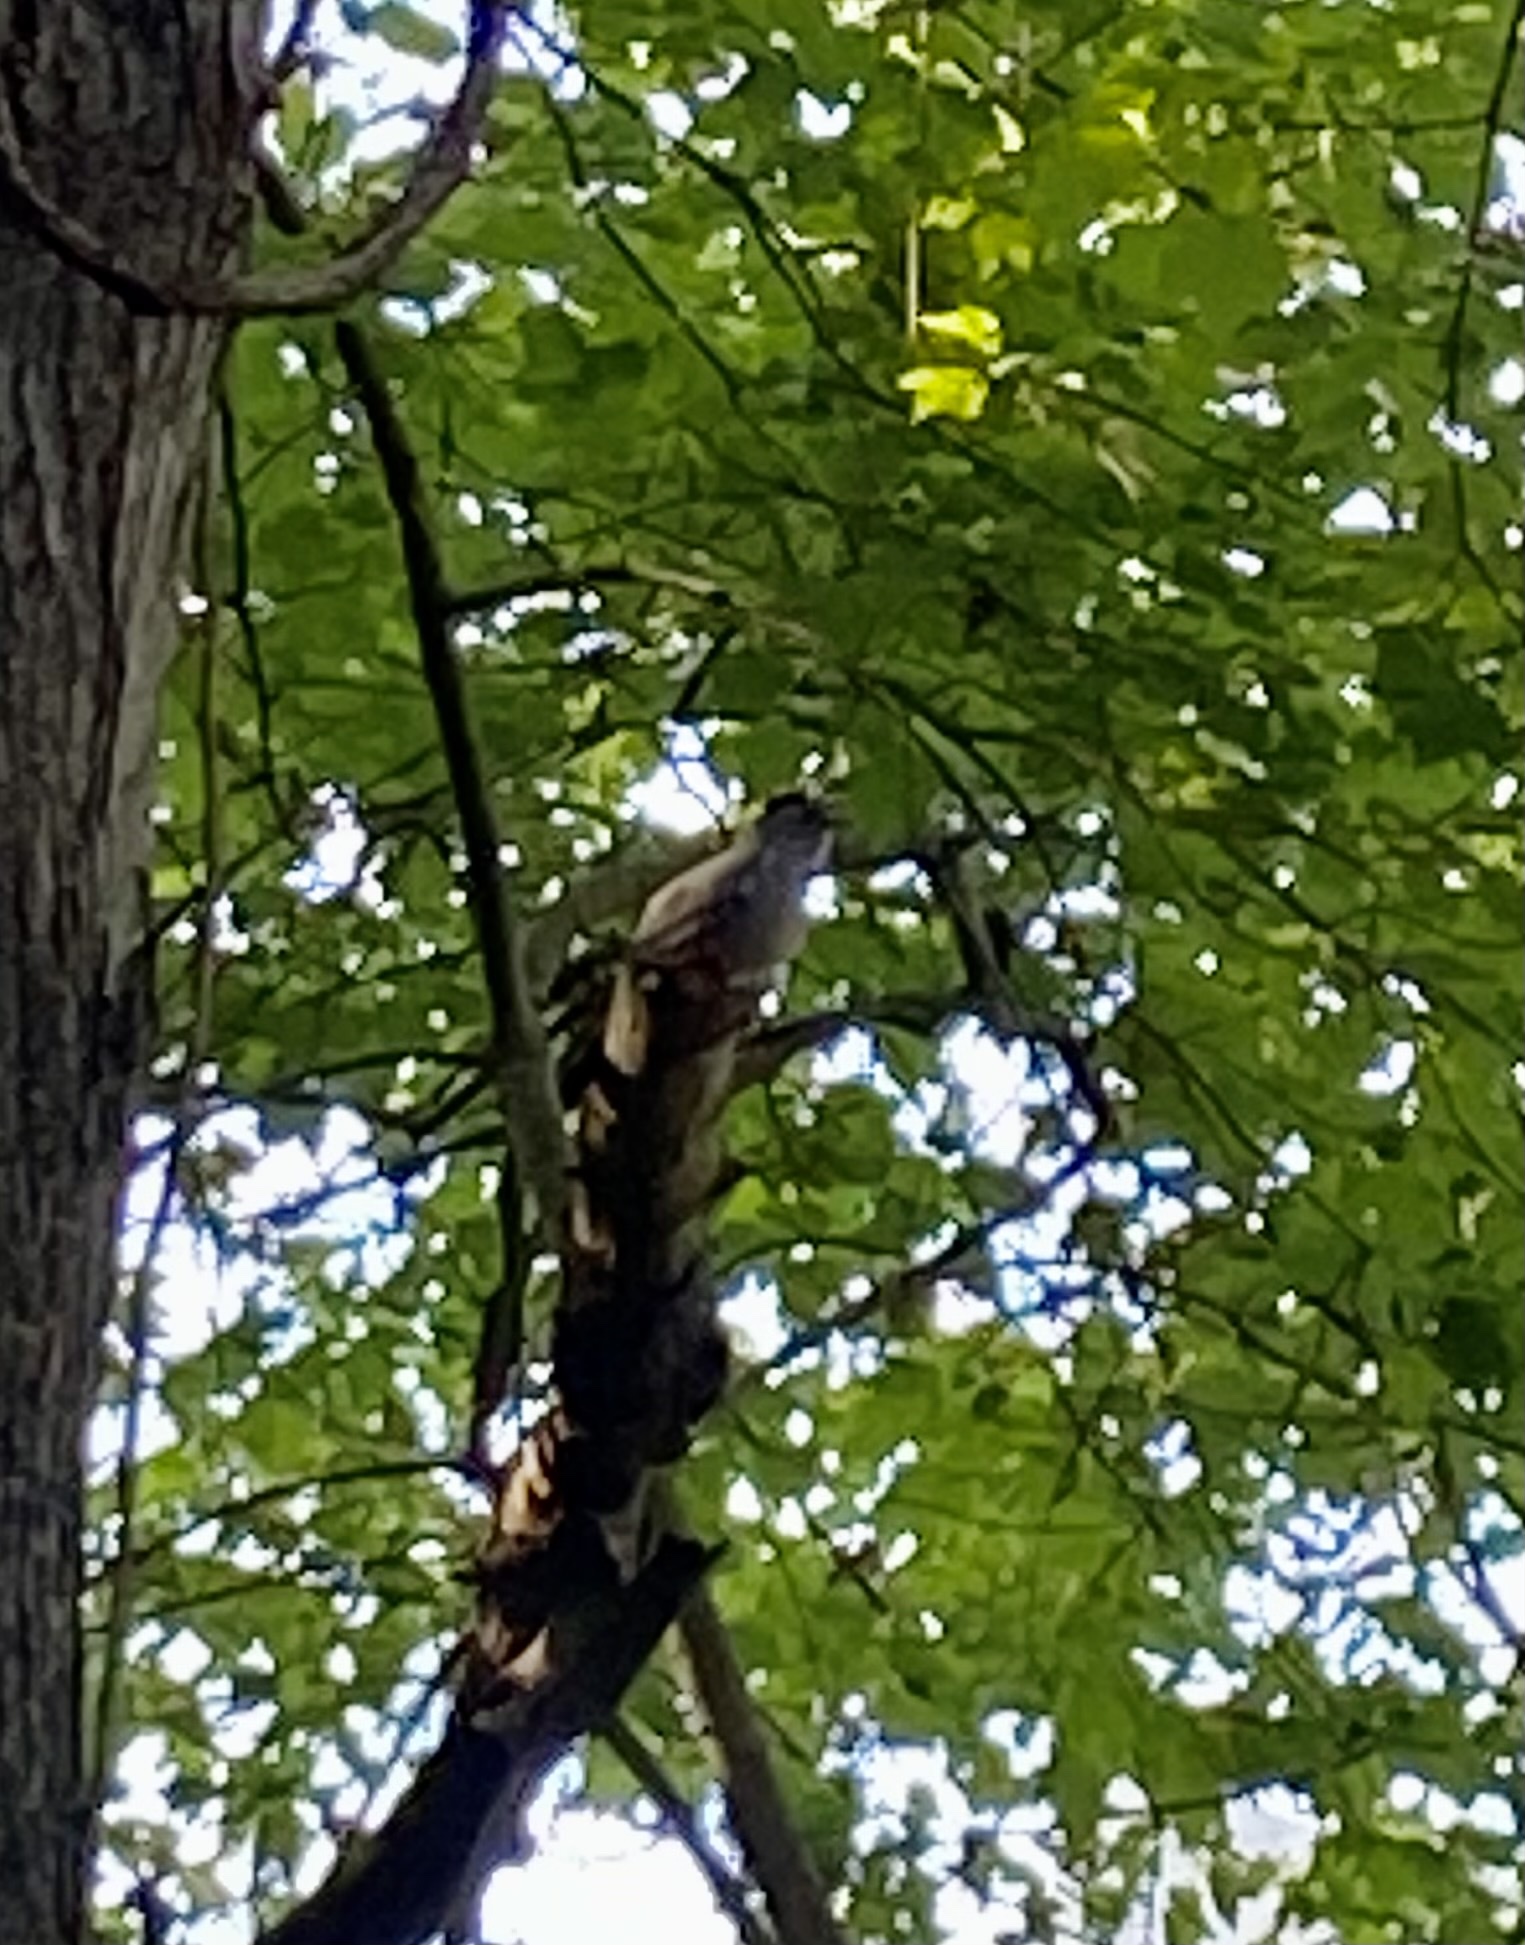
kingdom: Animalia
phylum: Chordata
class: Aves
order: Passeriformes
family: Mimidae
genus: Dumetella
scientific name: Dumetella carolinensis
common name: Gray catbird
